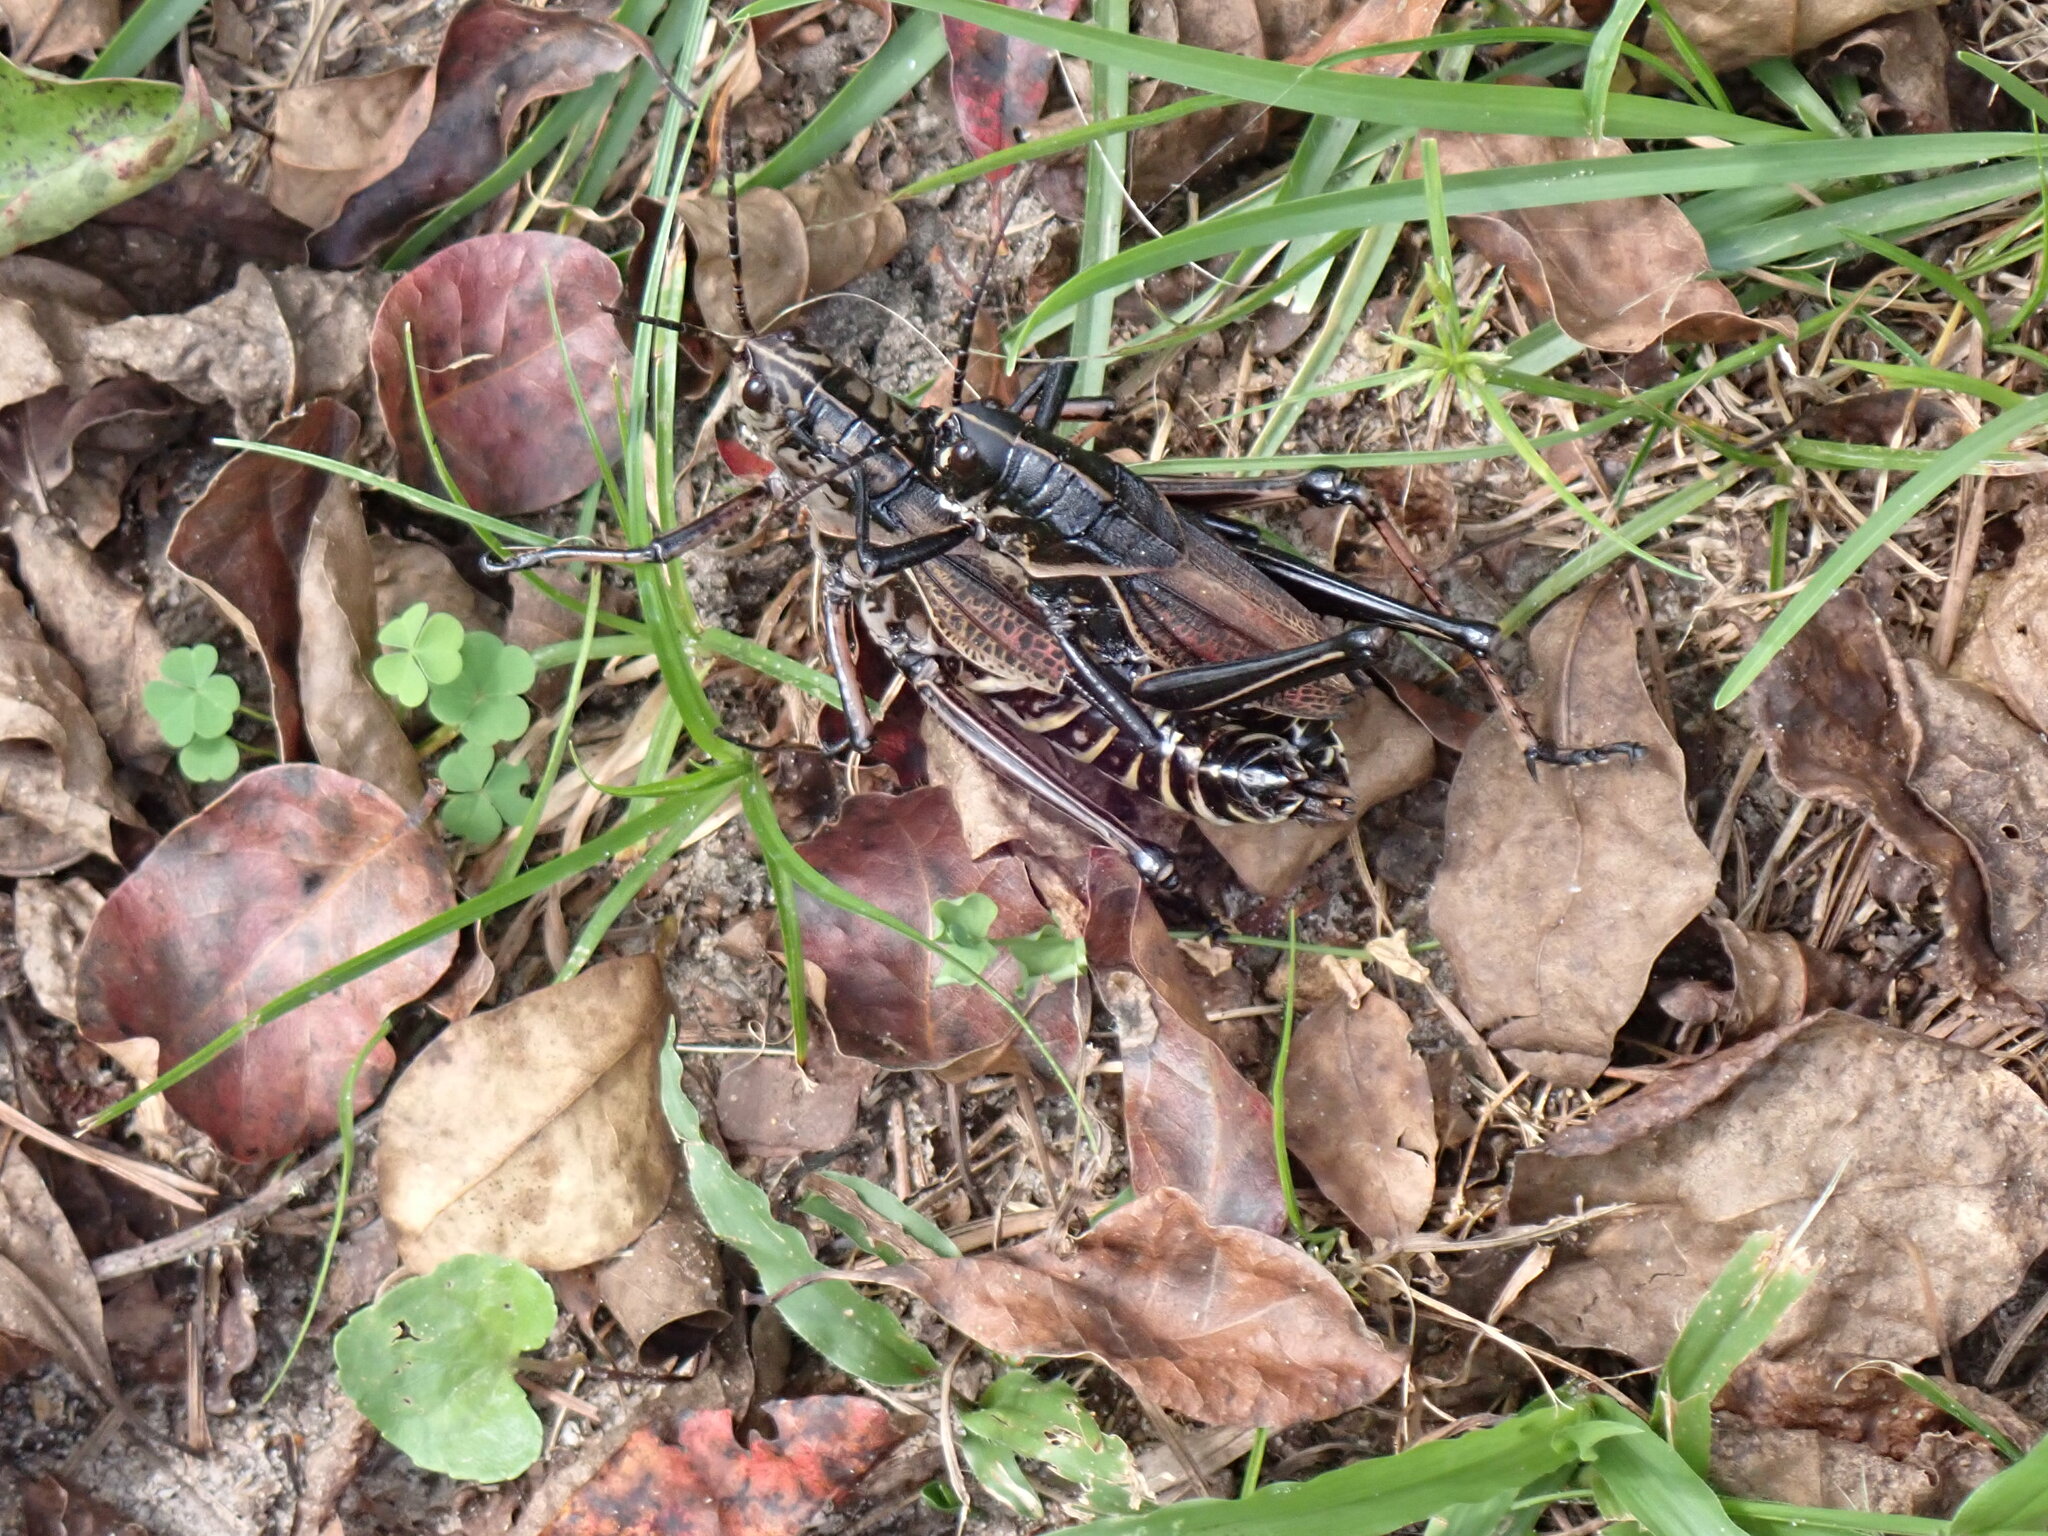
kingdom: Animalia
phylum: Arthropoda
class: Insecta
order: Orthoptera
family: Romaleidae
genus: Romalea
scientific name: Romalea microptera
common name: Eastern lubber grasshopper
